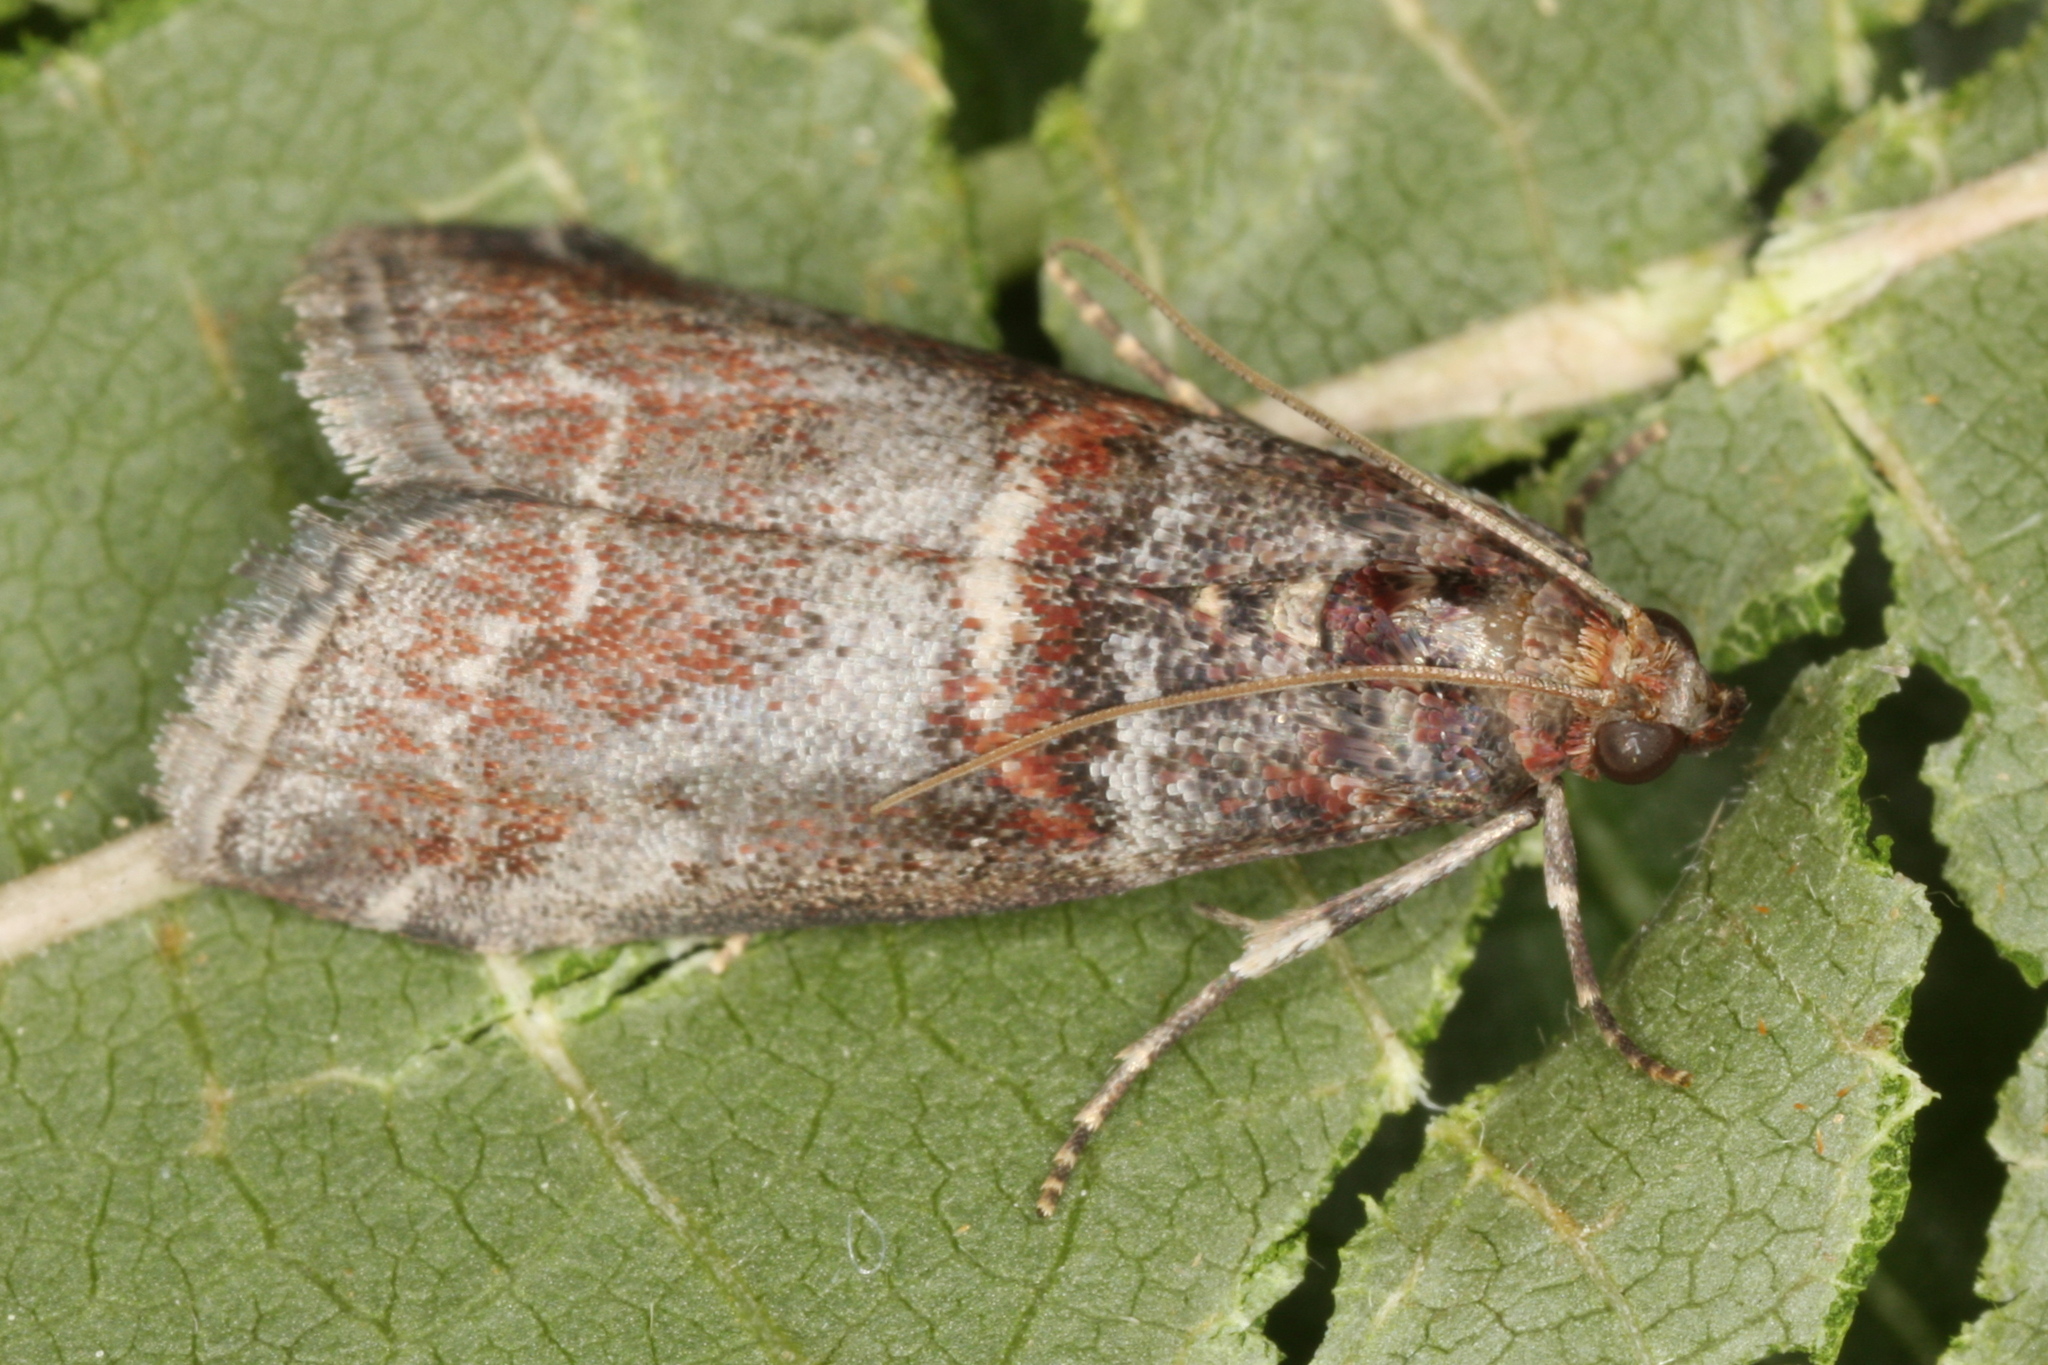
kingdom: Animalia
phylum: Arthropoda
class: Insecta
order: Lepidoptera
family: Pyralidae
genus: Acrobasis
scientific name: Acrobasis advenella
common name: Grey knot-horn
